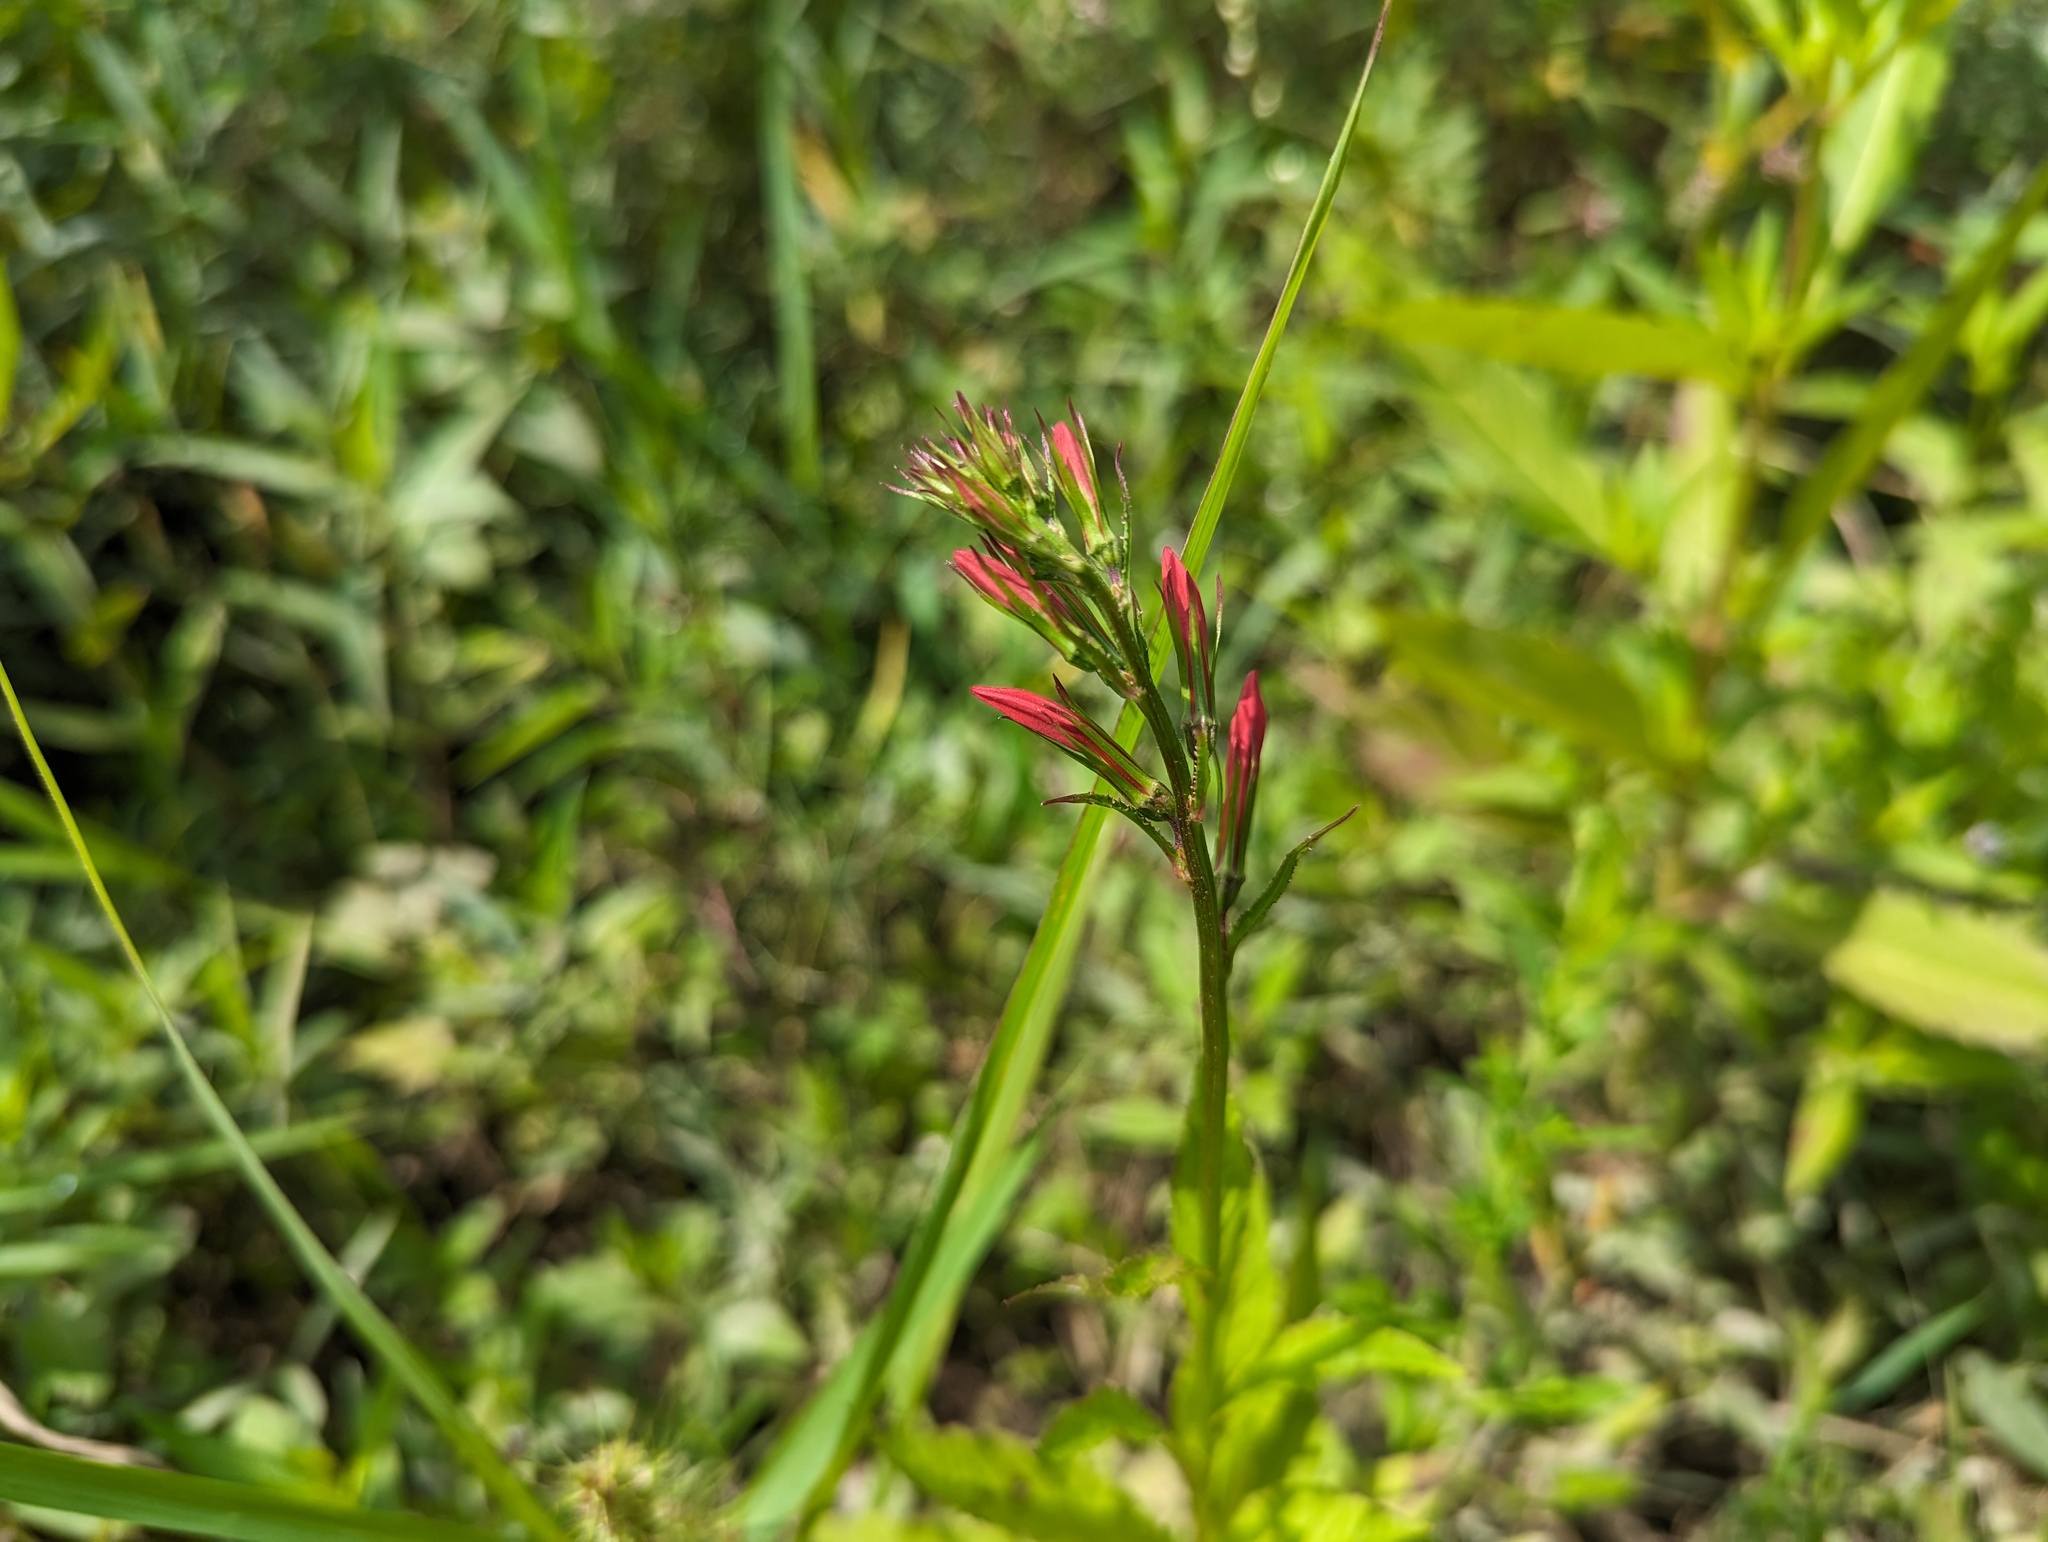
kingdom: Plantae
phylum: Tracheophyta
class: Magnoliopsida
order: Asterales
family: Campanulaceae
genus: Lobelia
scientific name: Lobelia cardinalis
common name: Cardinal flower
